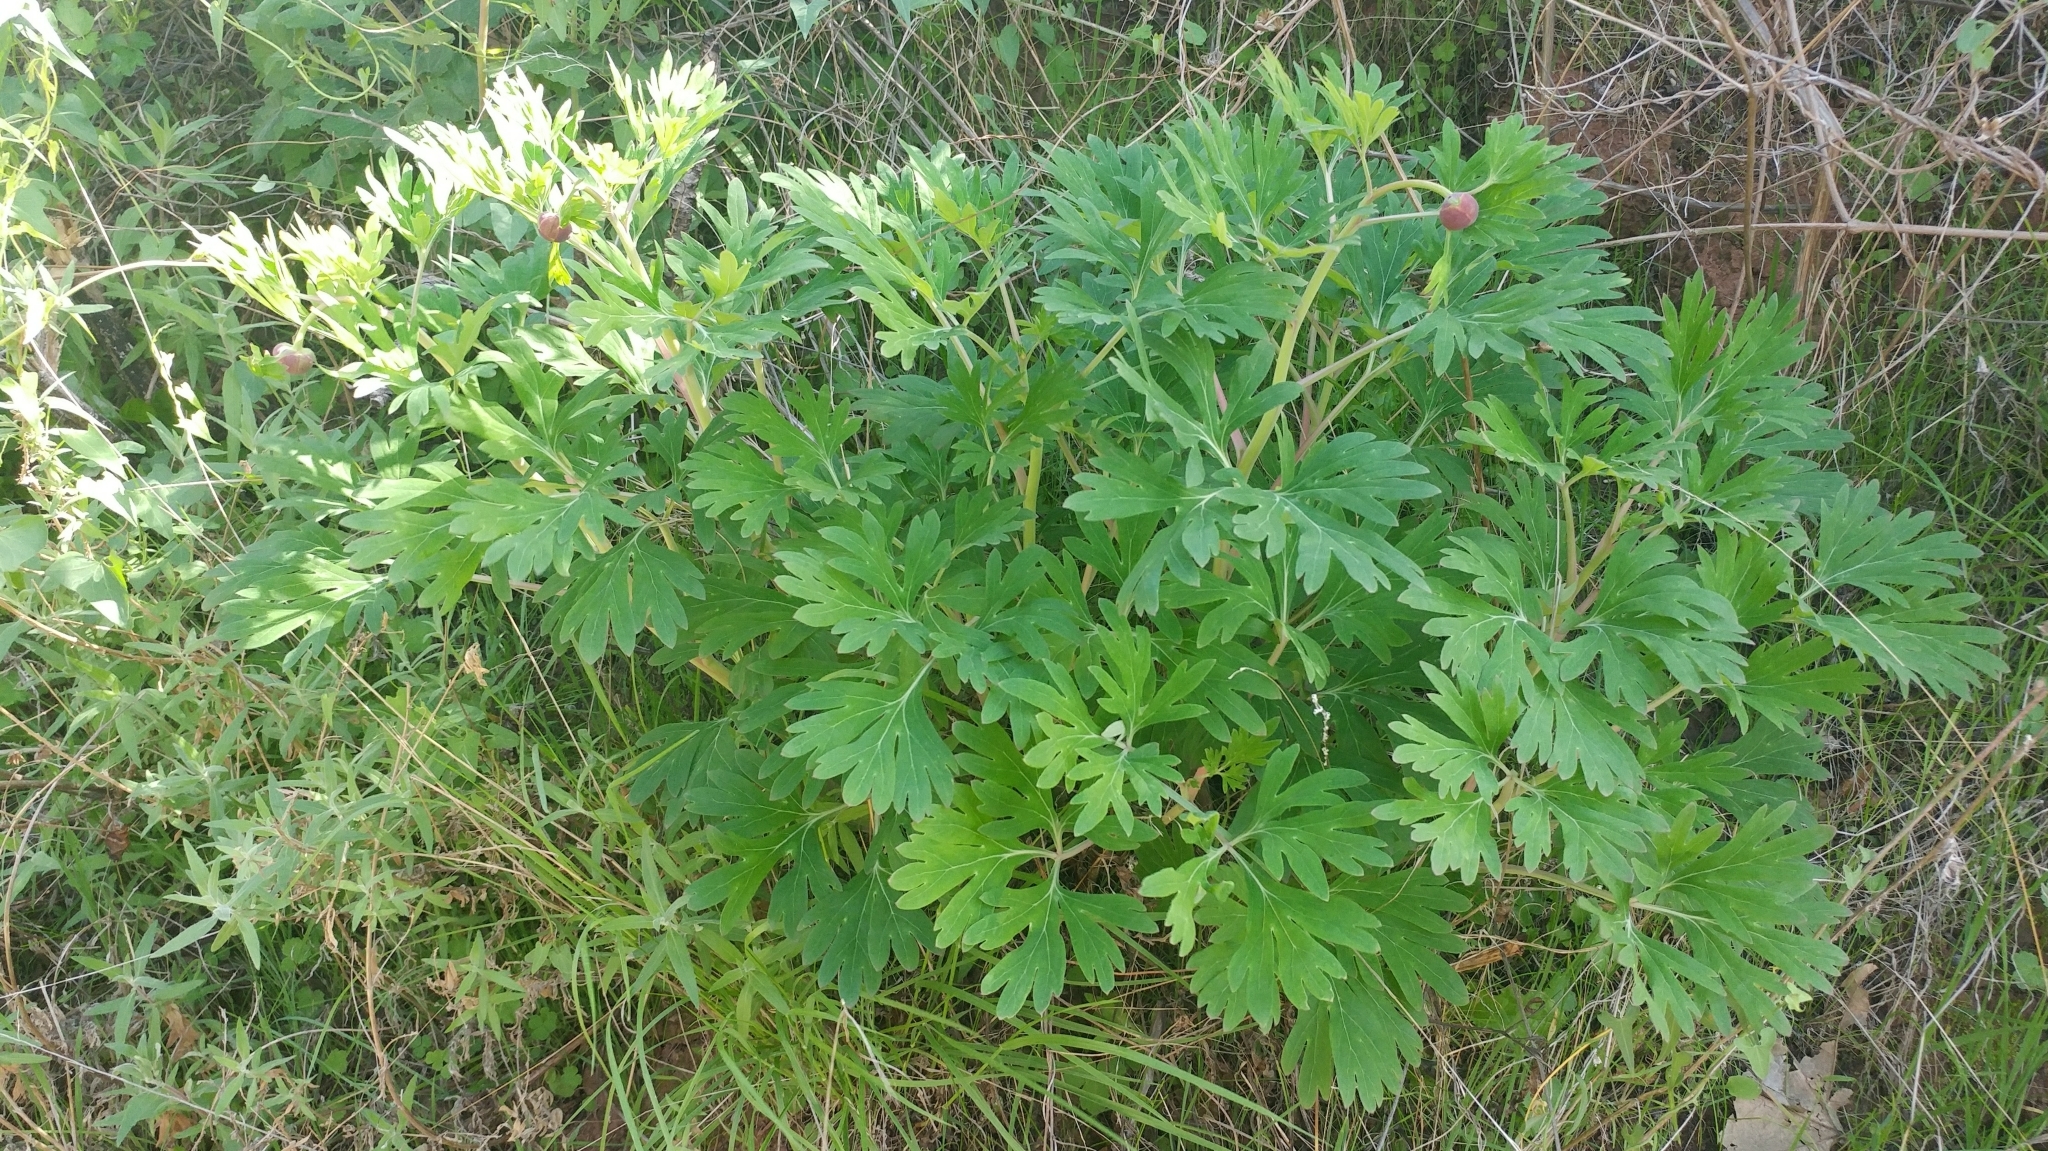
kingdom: Plantae
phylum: Tracheophyta
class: Magnoliopsida
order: Saxifragales
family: Paeoniaceae
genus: Paeonia
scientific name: Paeonia californica
